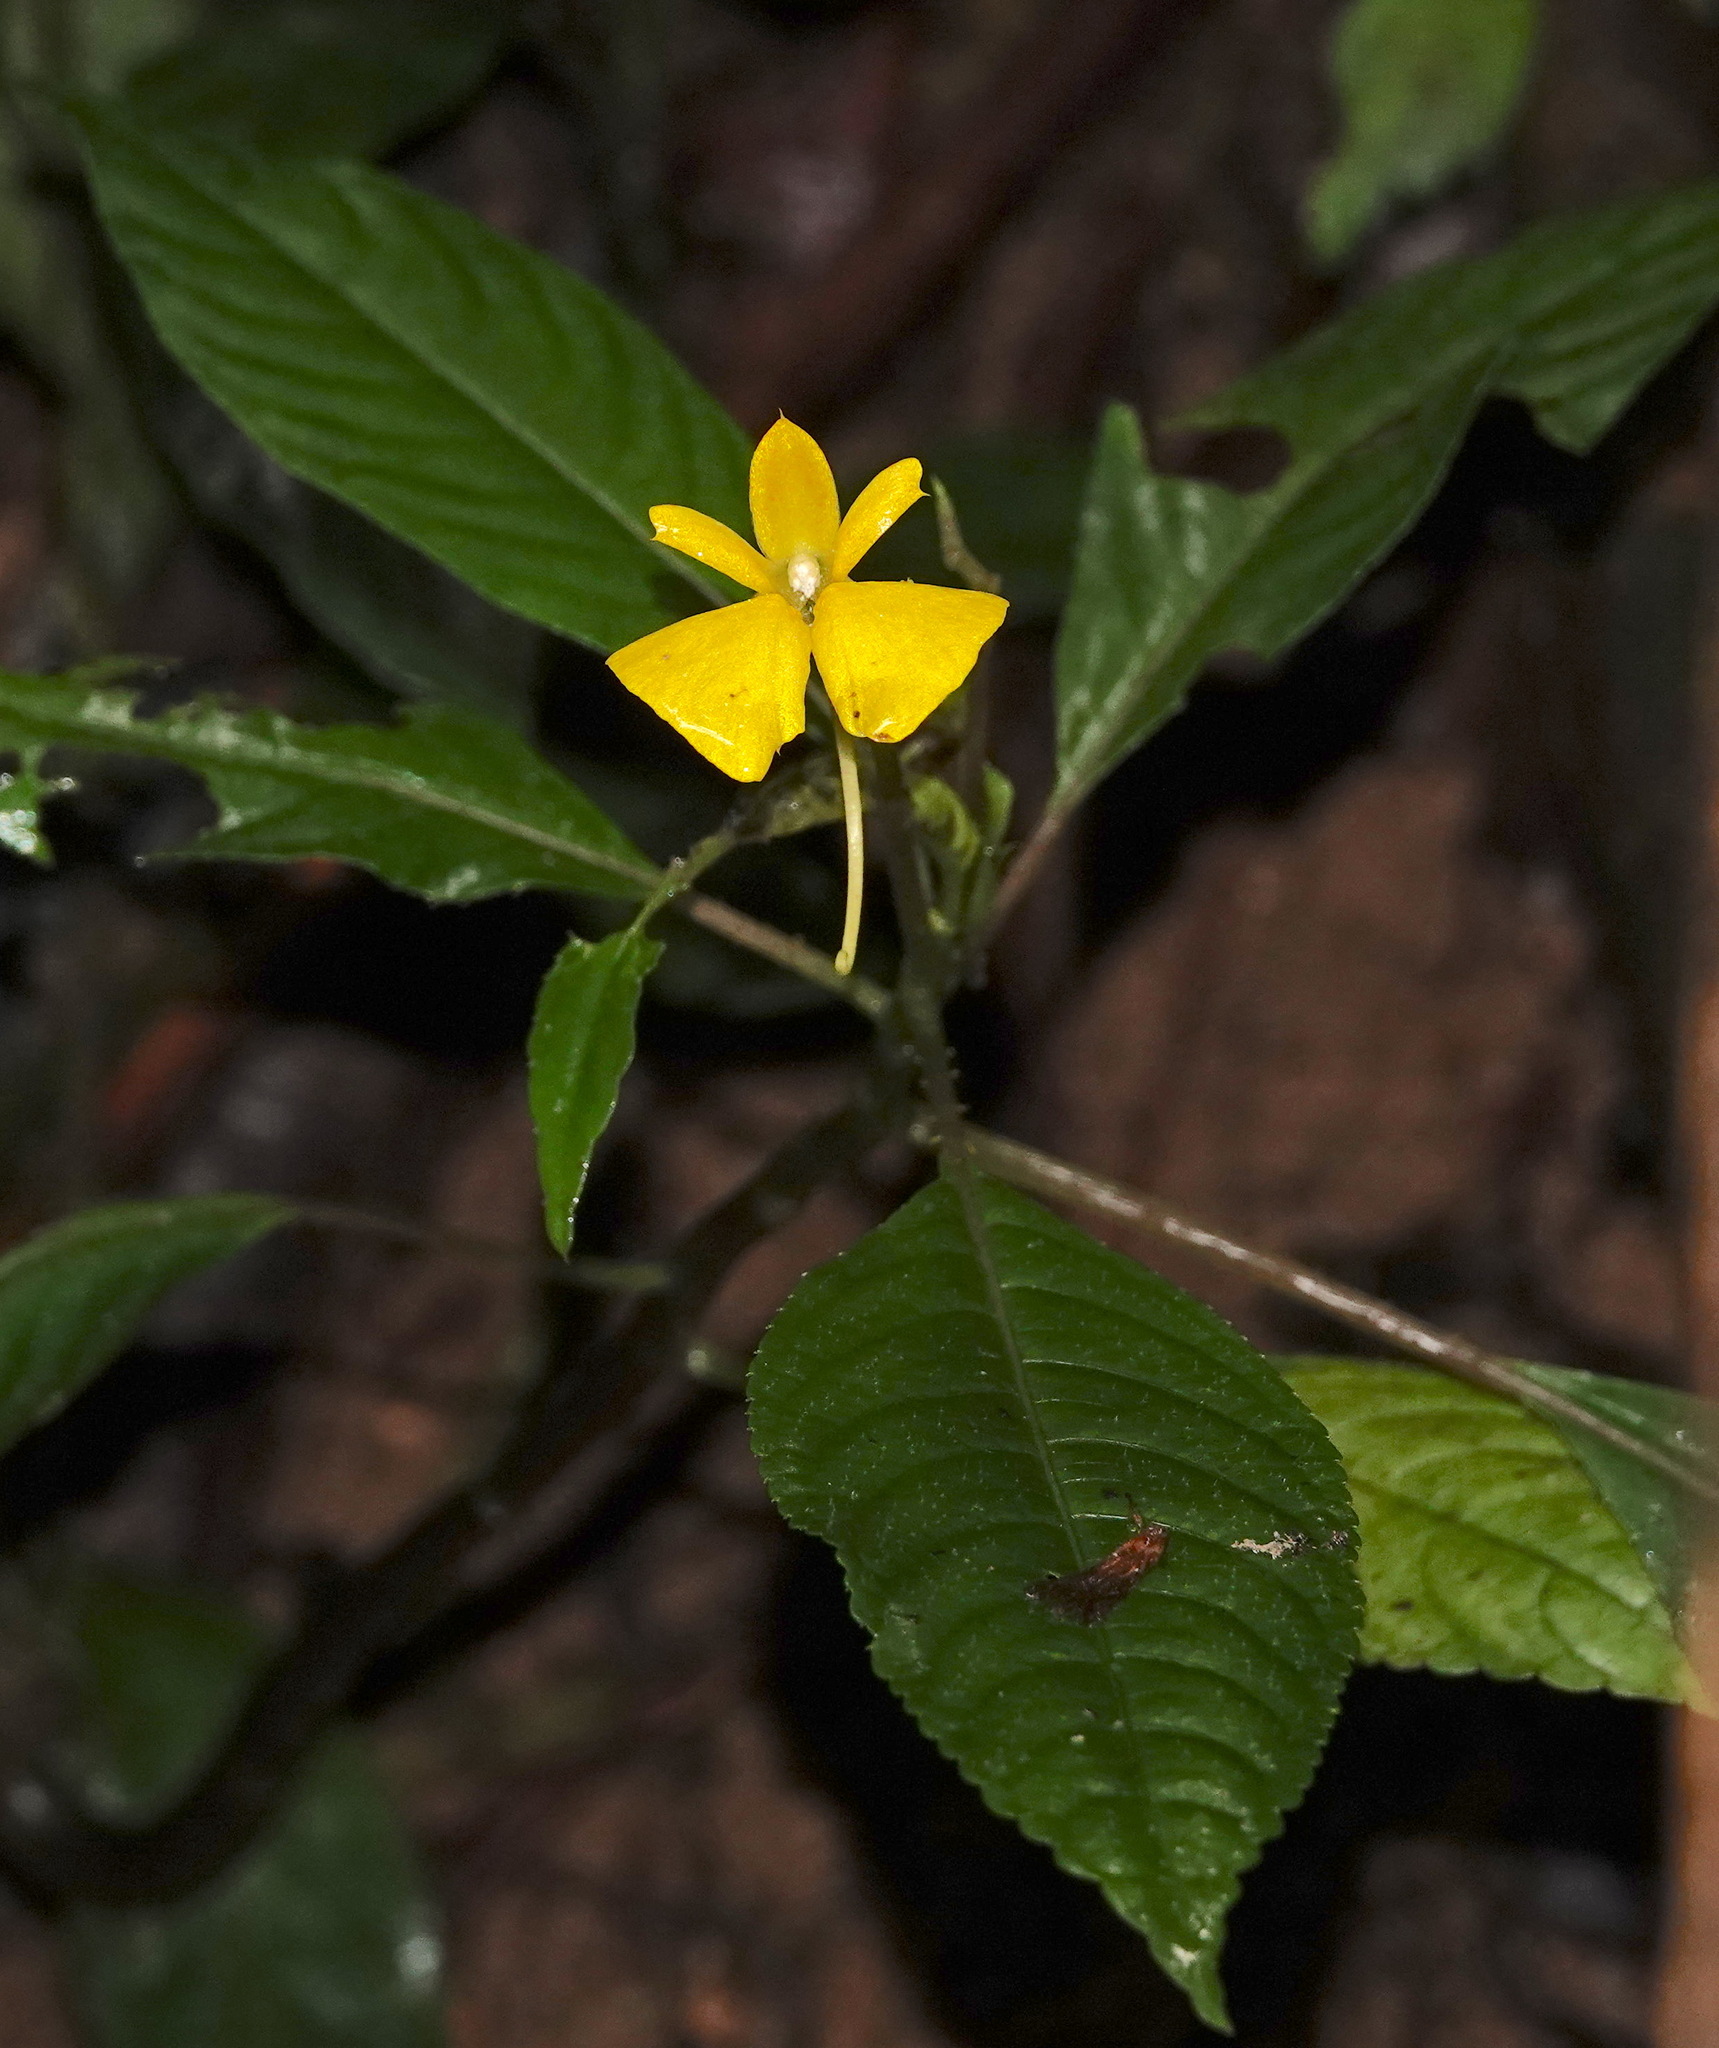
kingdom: Plantae
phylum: Tracheophyta
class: Magnoliopsida
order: Ericales
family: Balsaminaceae
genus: Impatiens
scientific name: Impatiens oncidioides
